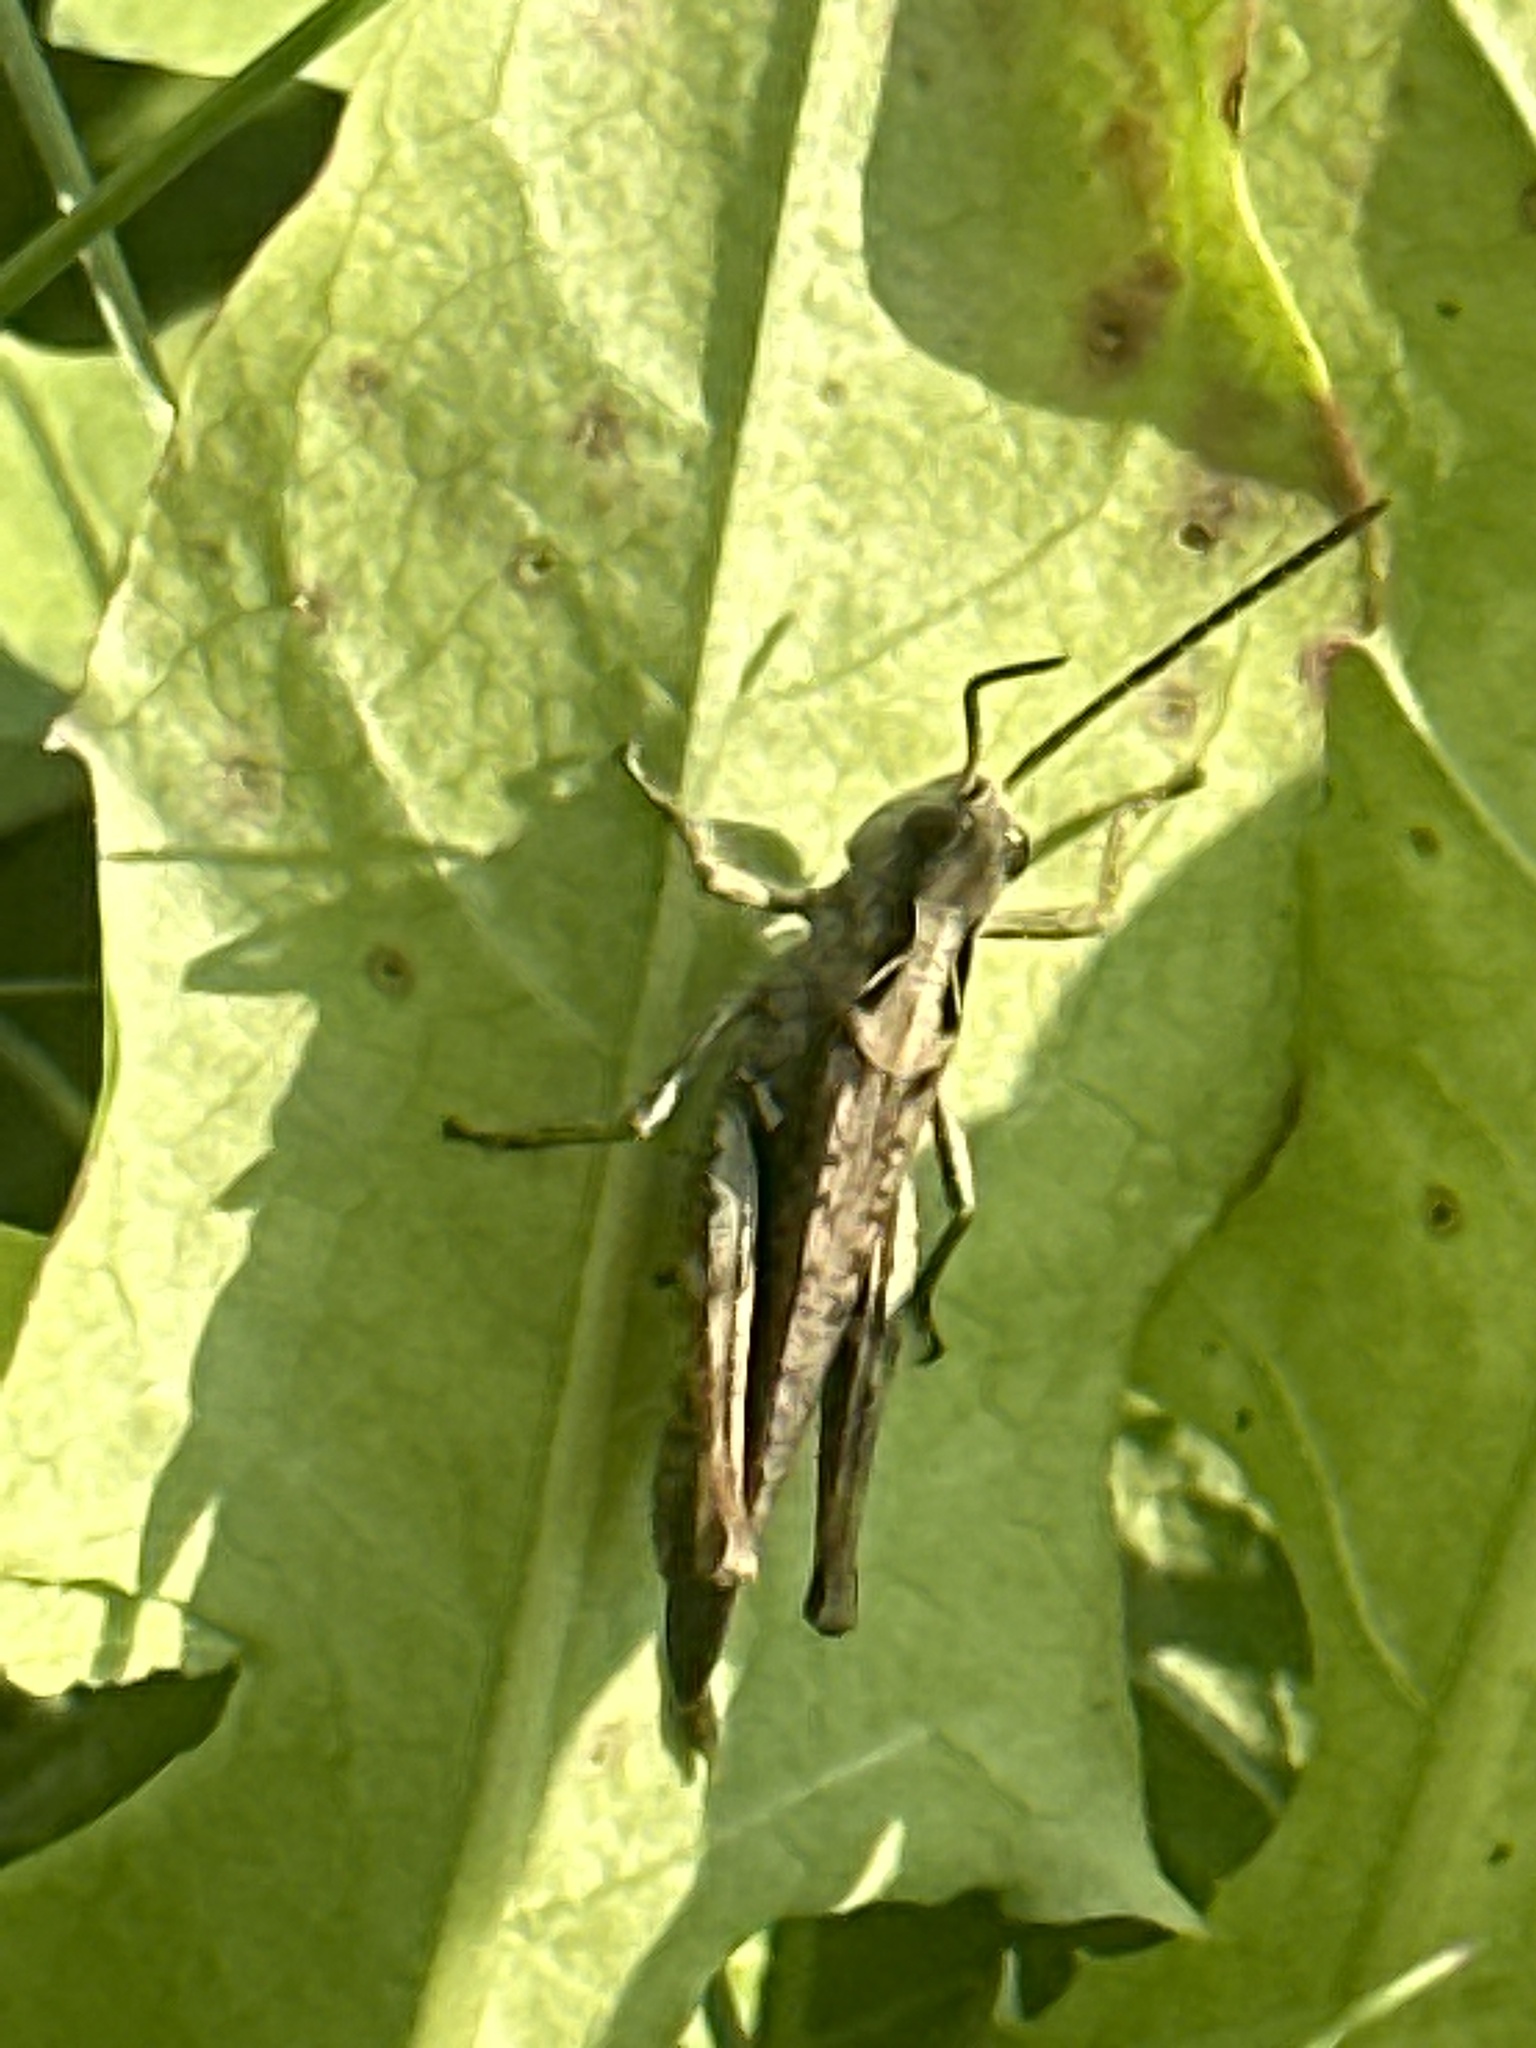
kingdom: Animalia
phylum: Arthropoda
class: Insecta
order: Orthoptera
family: Acrididae
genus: Chorthippus
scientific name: Chorthippus biguttulus
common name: Bow-winged grasshopper
